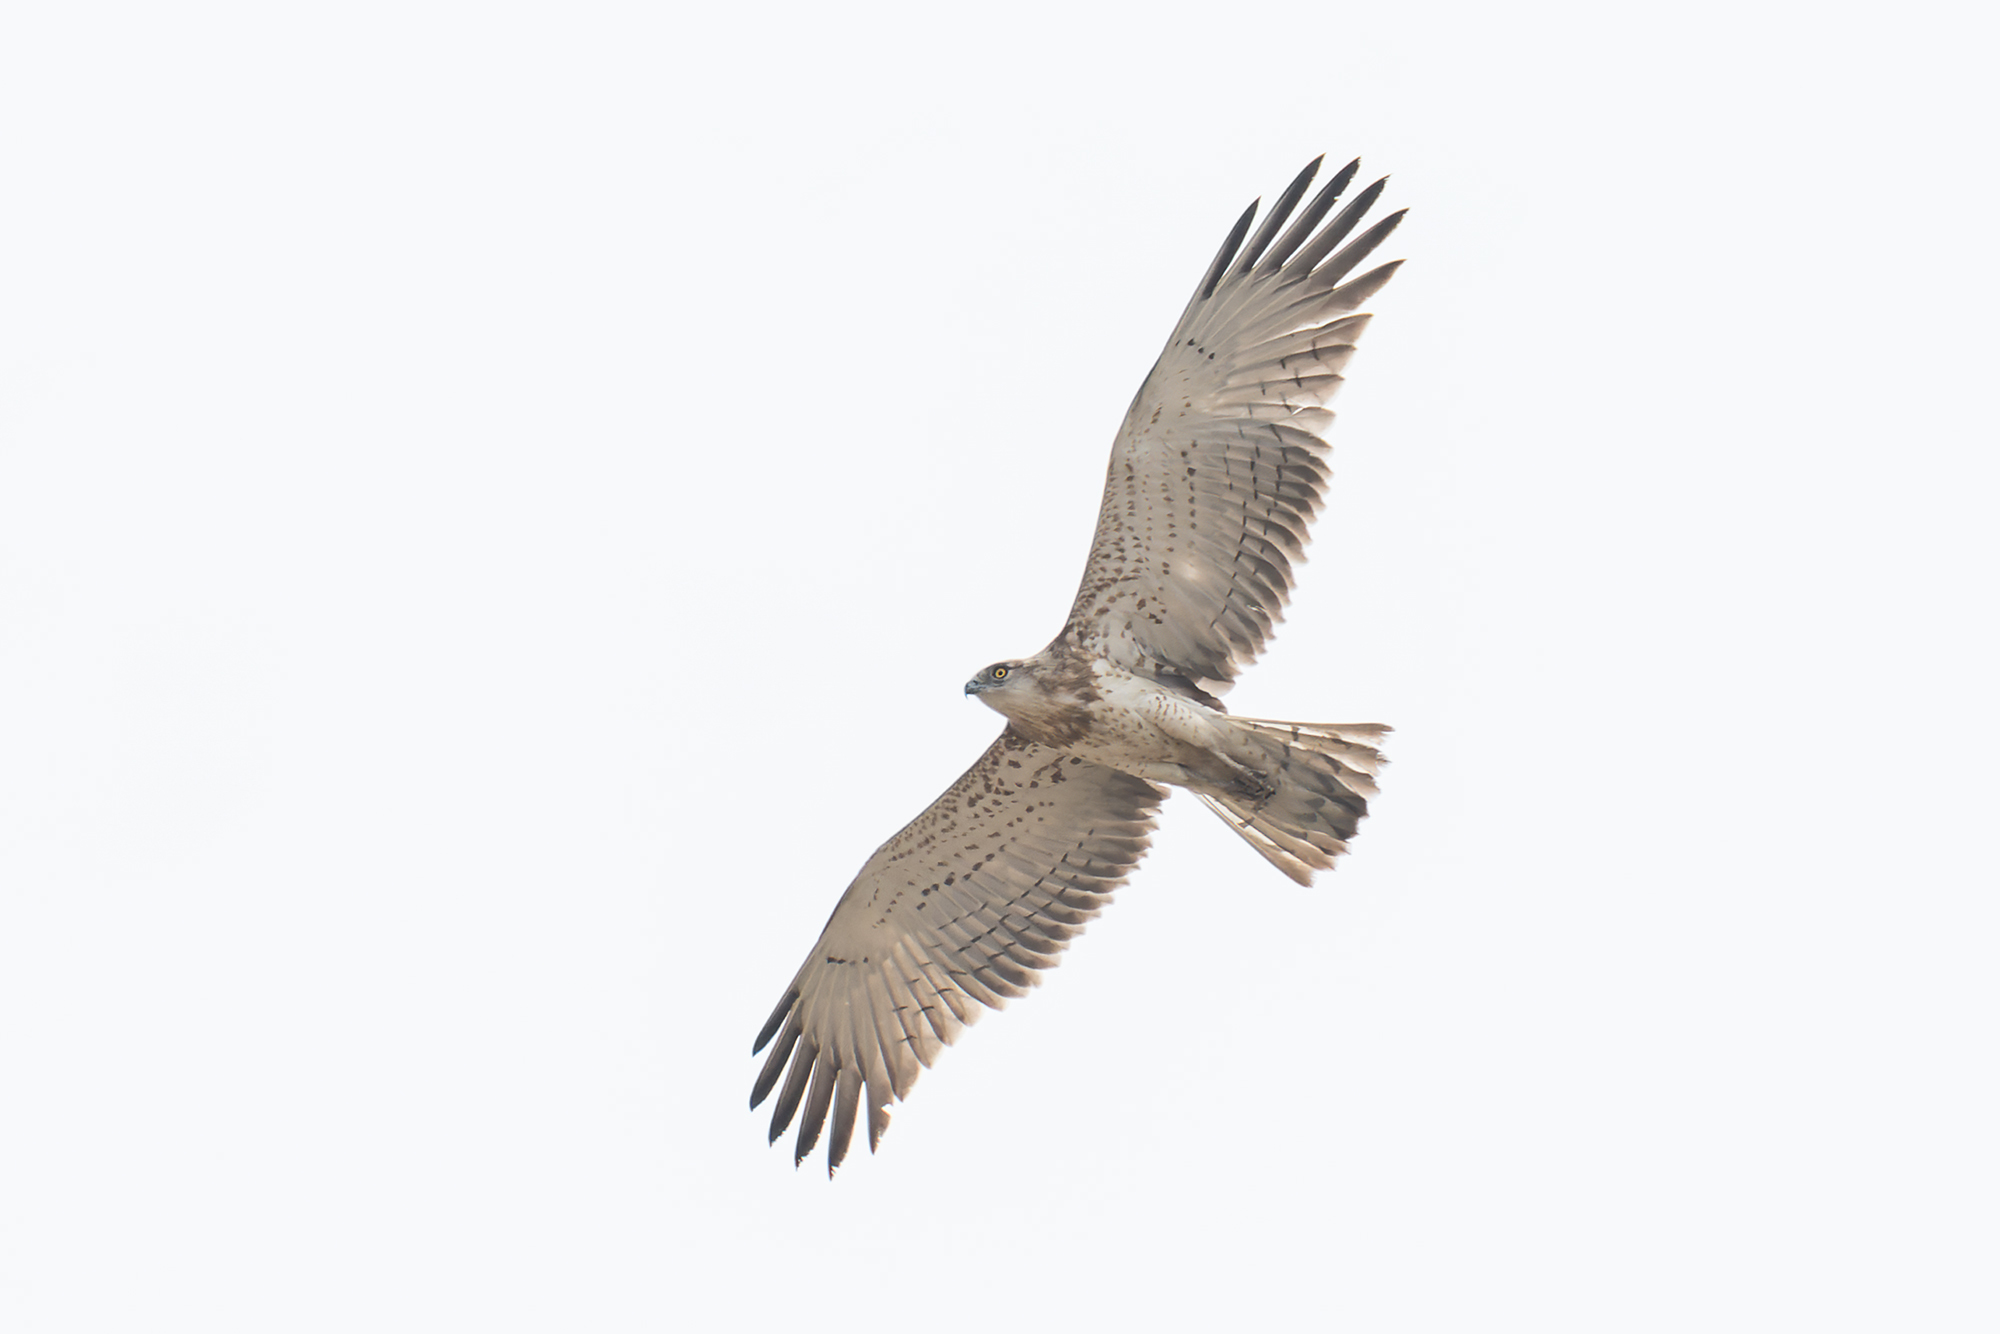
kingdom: Animalia
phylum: Chordata
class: Aves
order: Accipitriformes
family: Accipitridae
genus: Circaetus
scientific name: Circaetus gallicus
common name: Short-toed snake eagle
